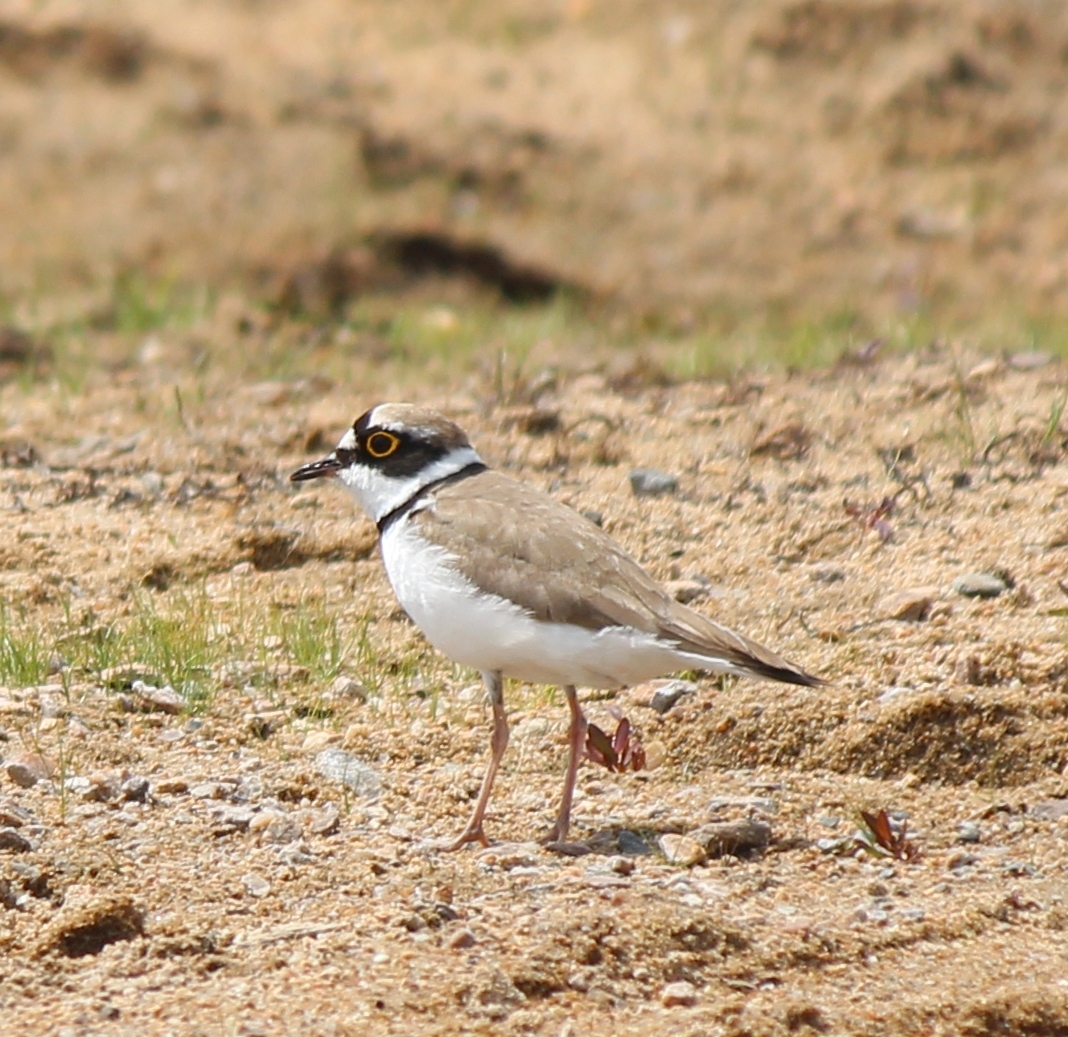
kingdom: Animalia
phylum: Chordata
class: Aves
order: Charadriiformes
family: Charadriidae
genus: Charadrius
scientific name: Charadrius dubius
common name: Little ringed plover
